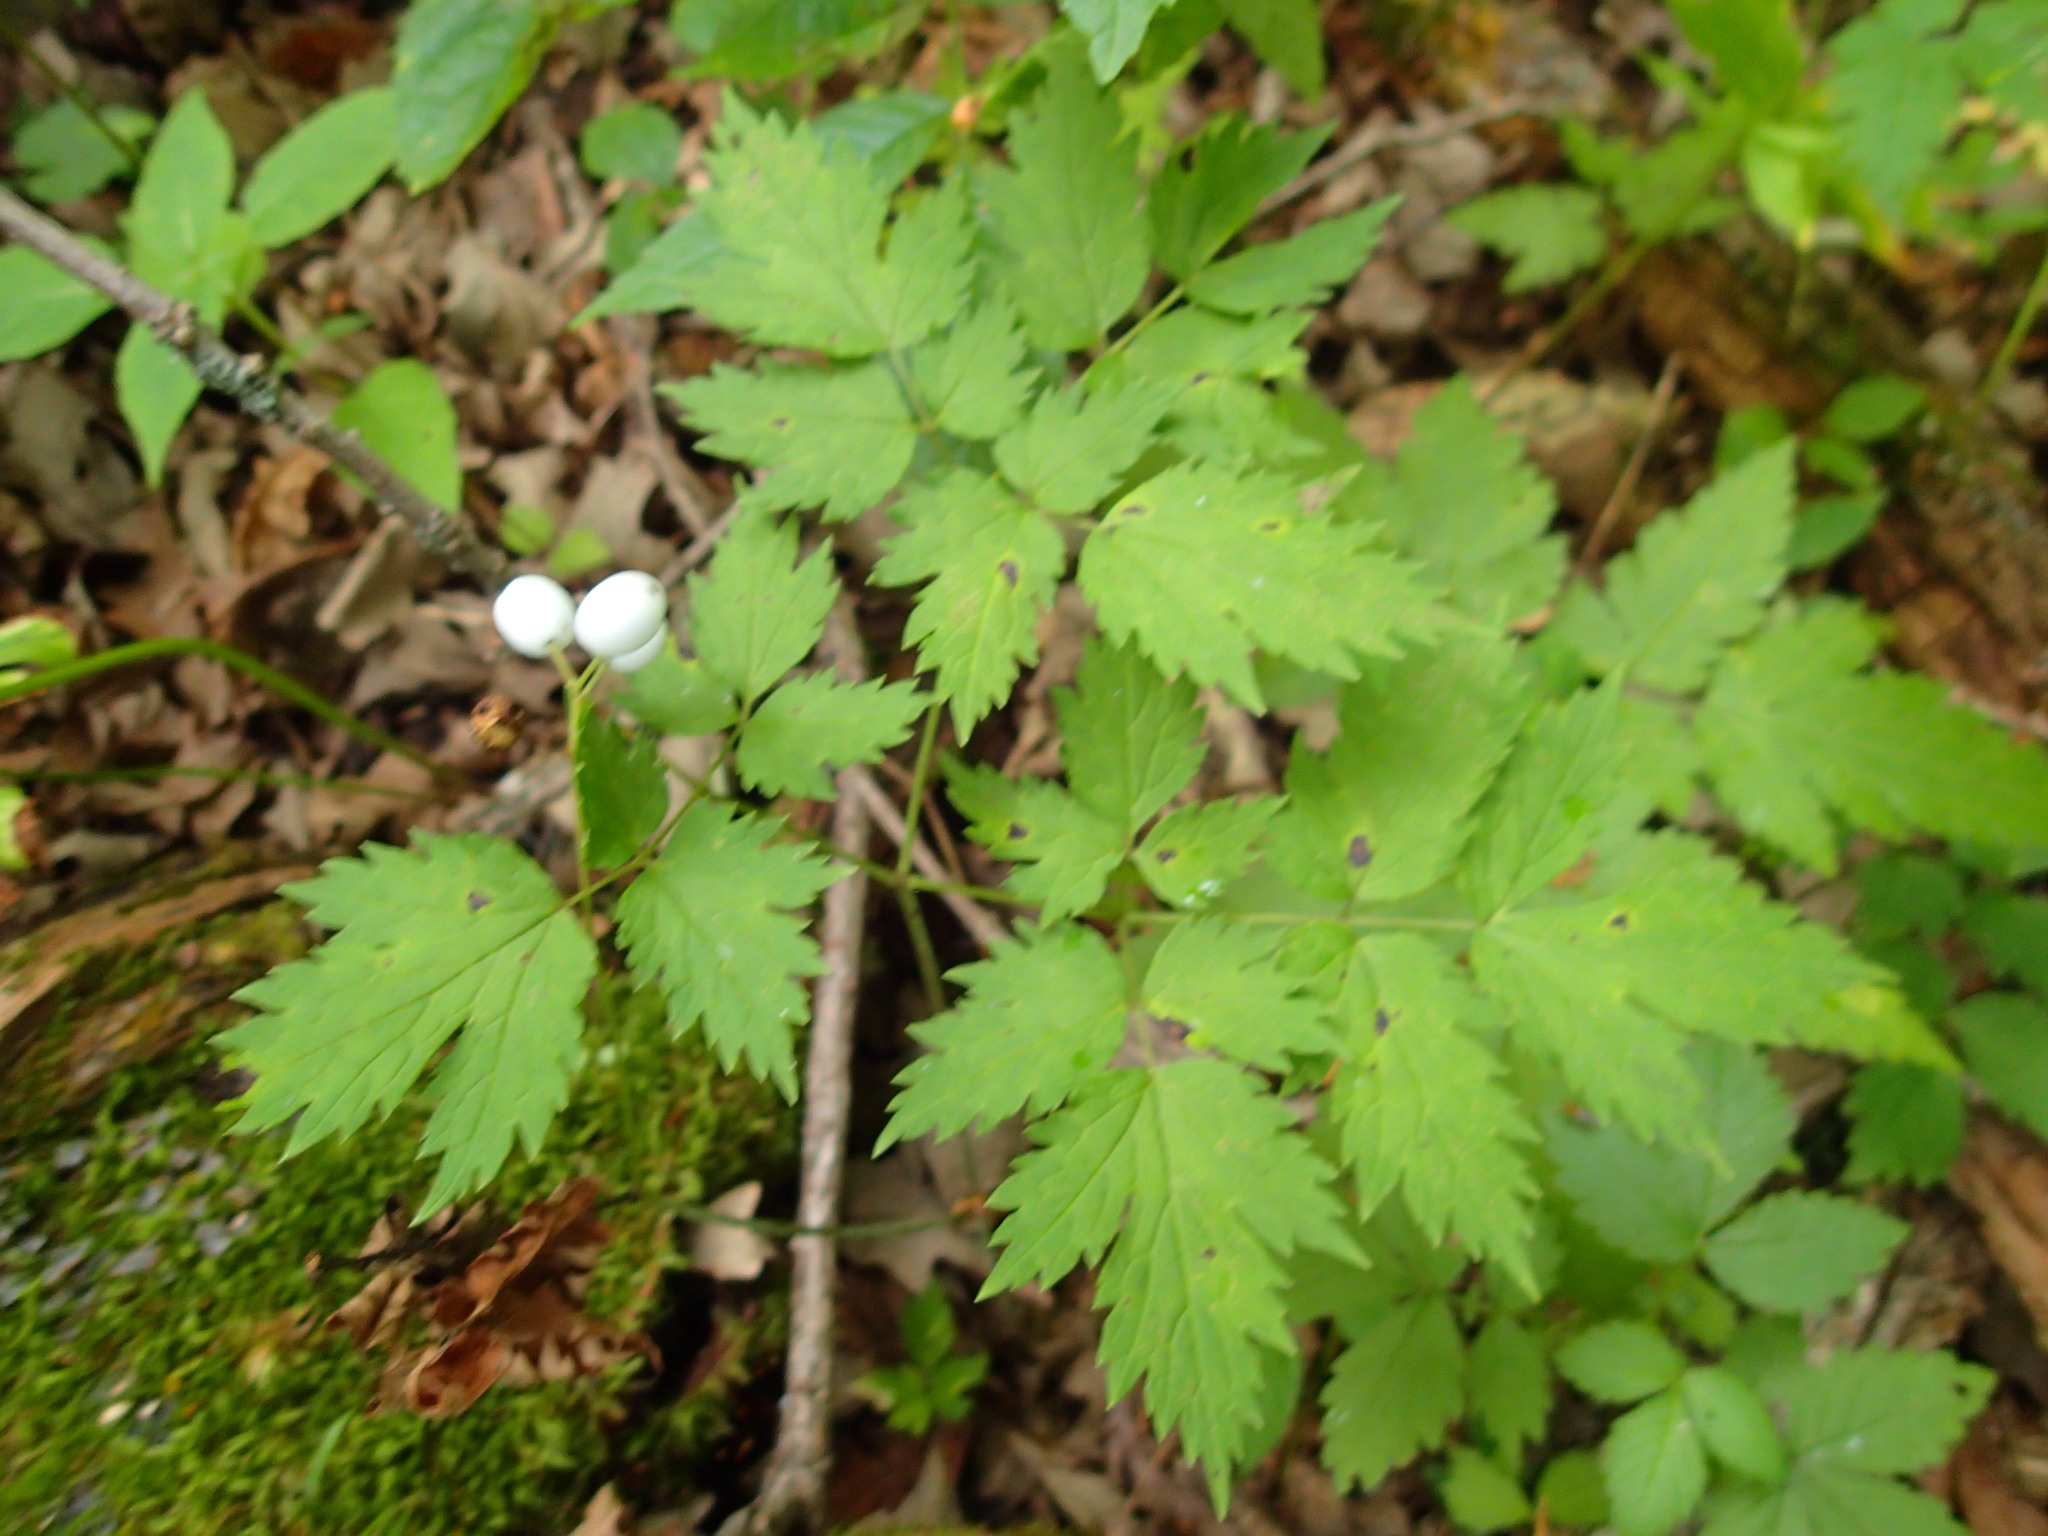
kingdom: Plantae
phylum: Tracheophyta
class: Magnoliopsida
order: Ranunculales
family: Ranunculaceae
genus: Actaea
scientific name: Actaea rubra
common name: Red baneberry
